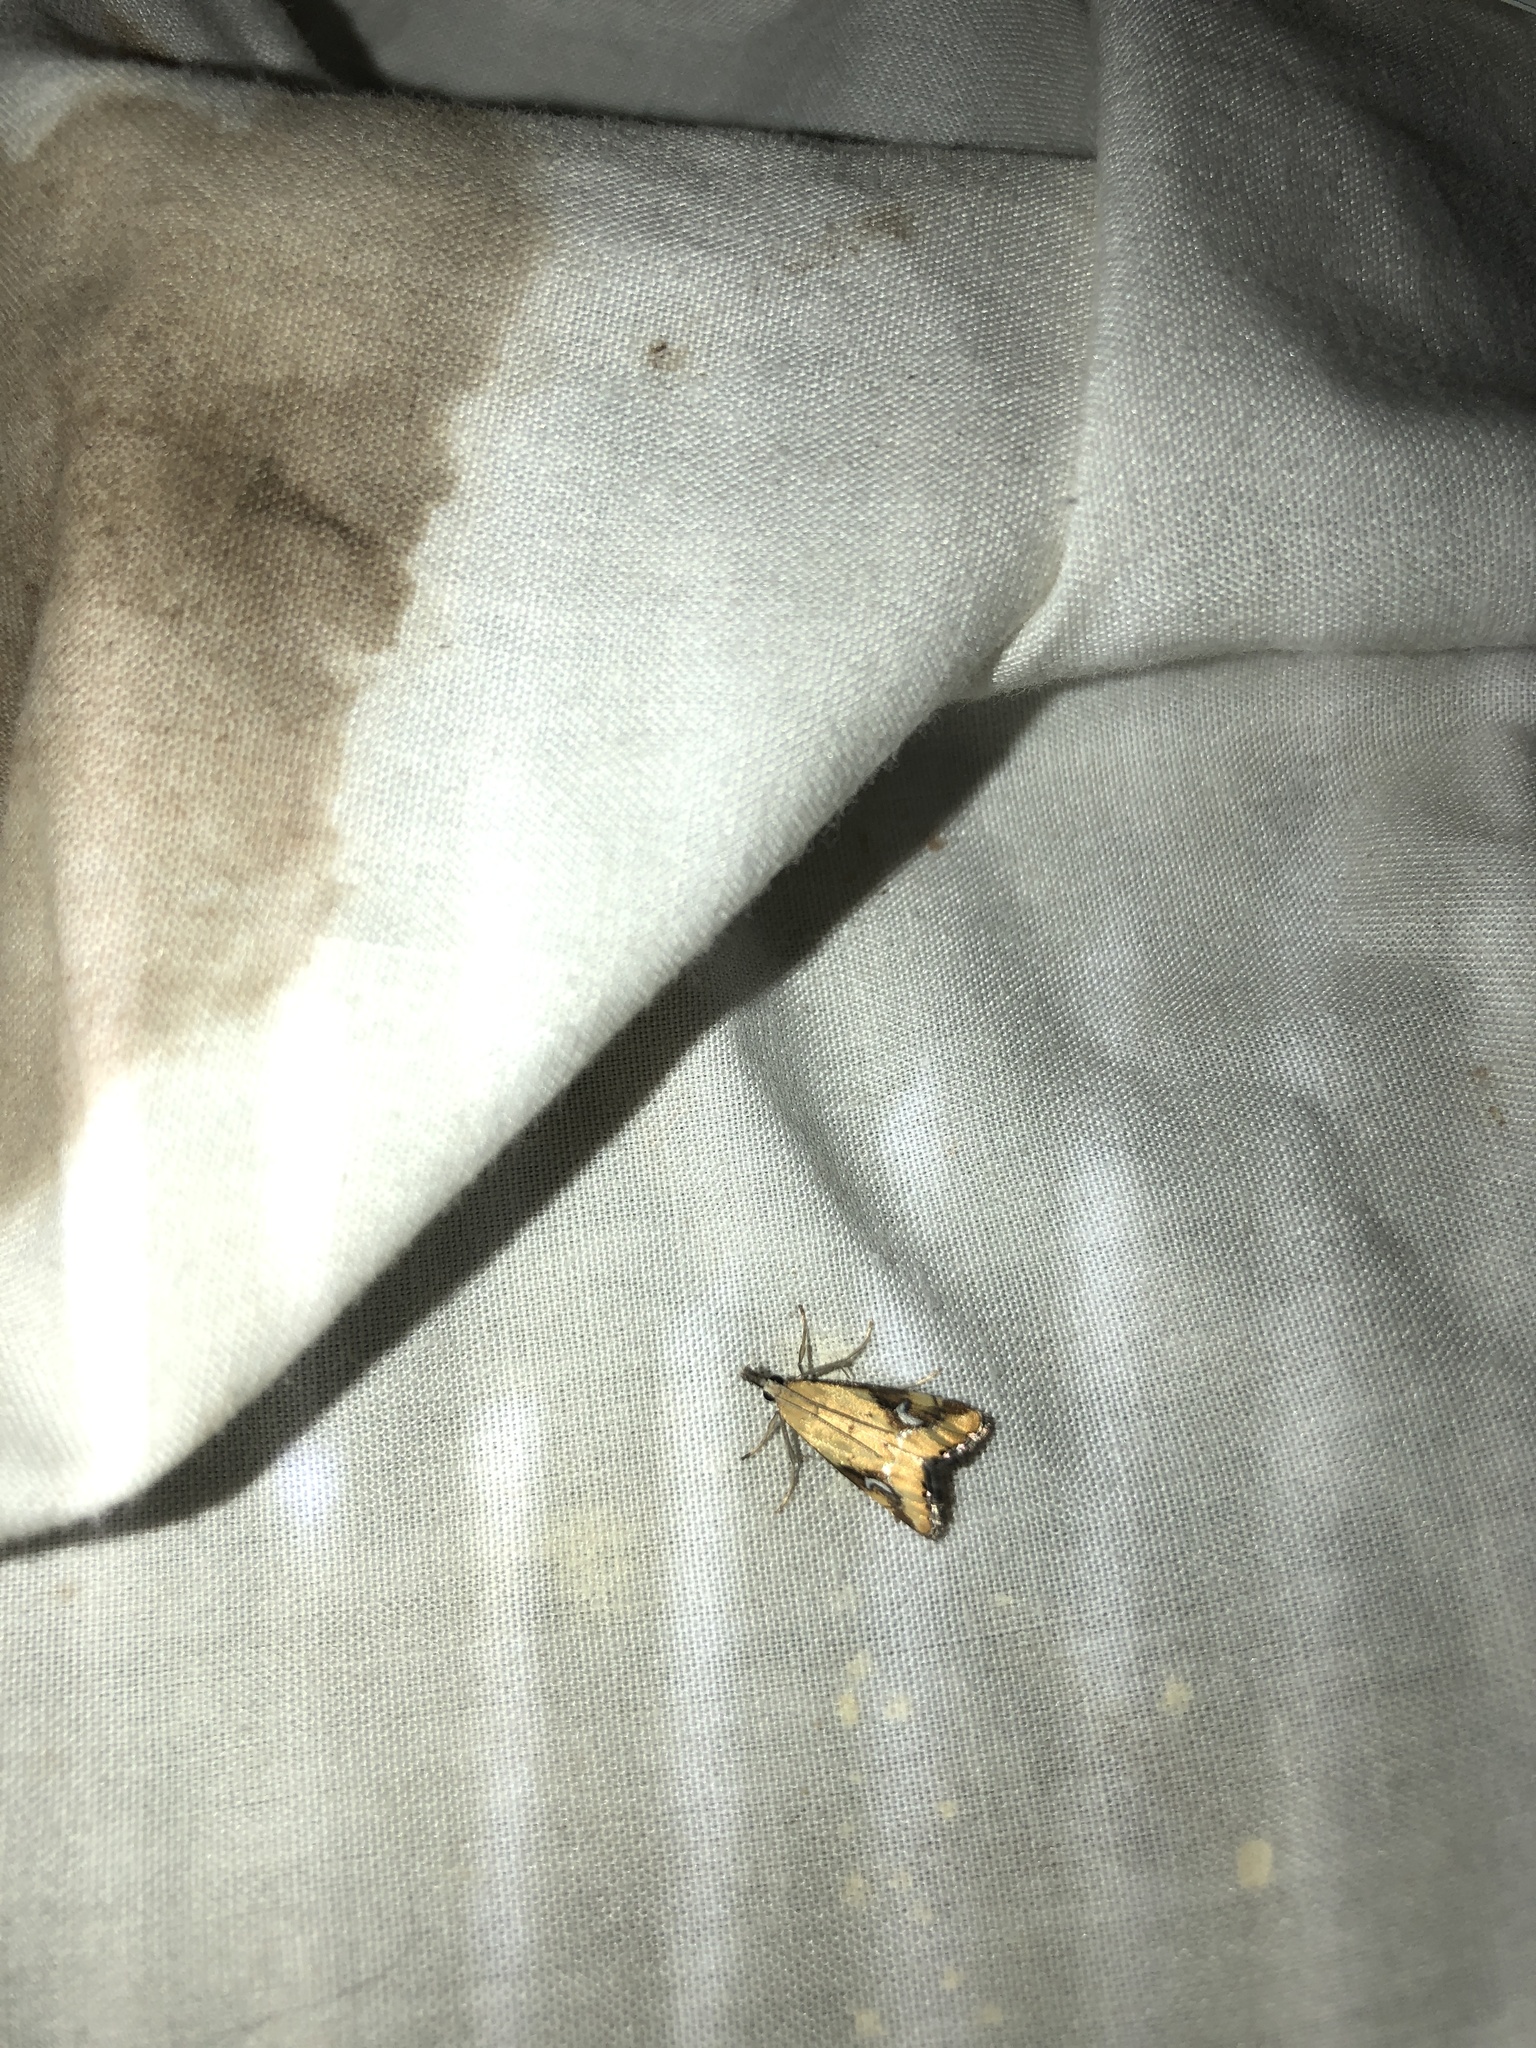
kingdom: Animalia
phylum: Arthropoda
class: Insecta
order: Lepidoptera
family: Crambidae
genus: Glaucocharis
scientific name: Glaucocharis lepidella
